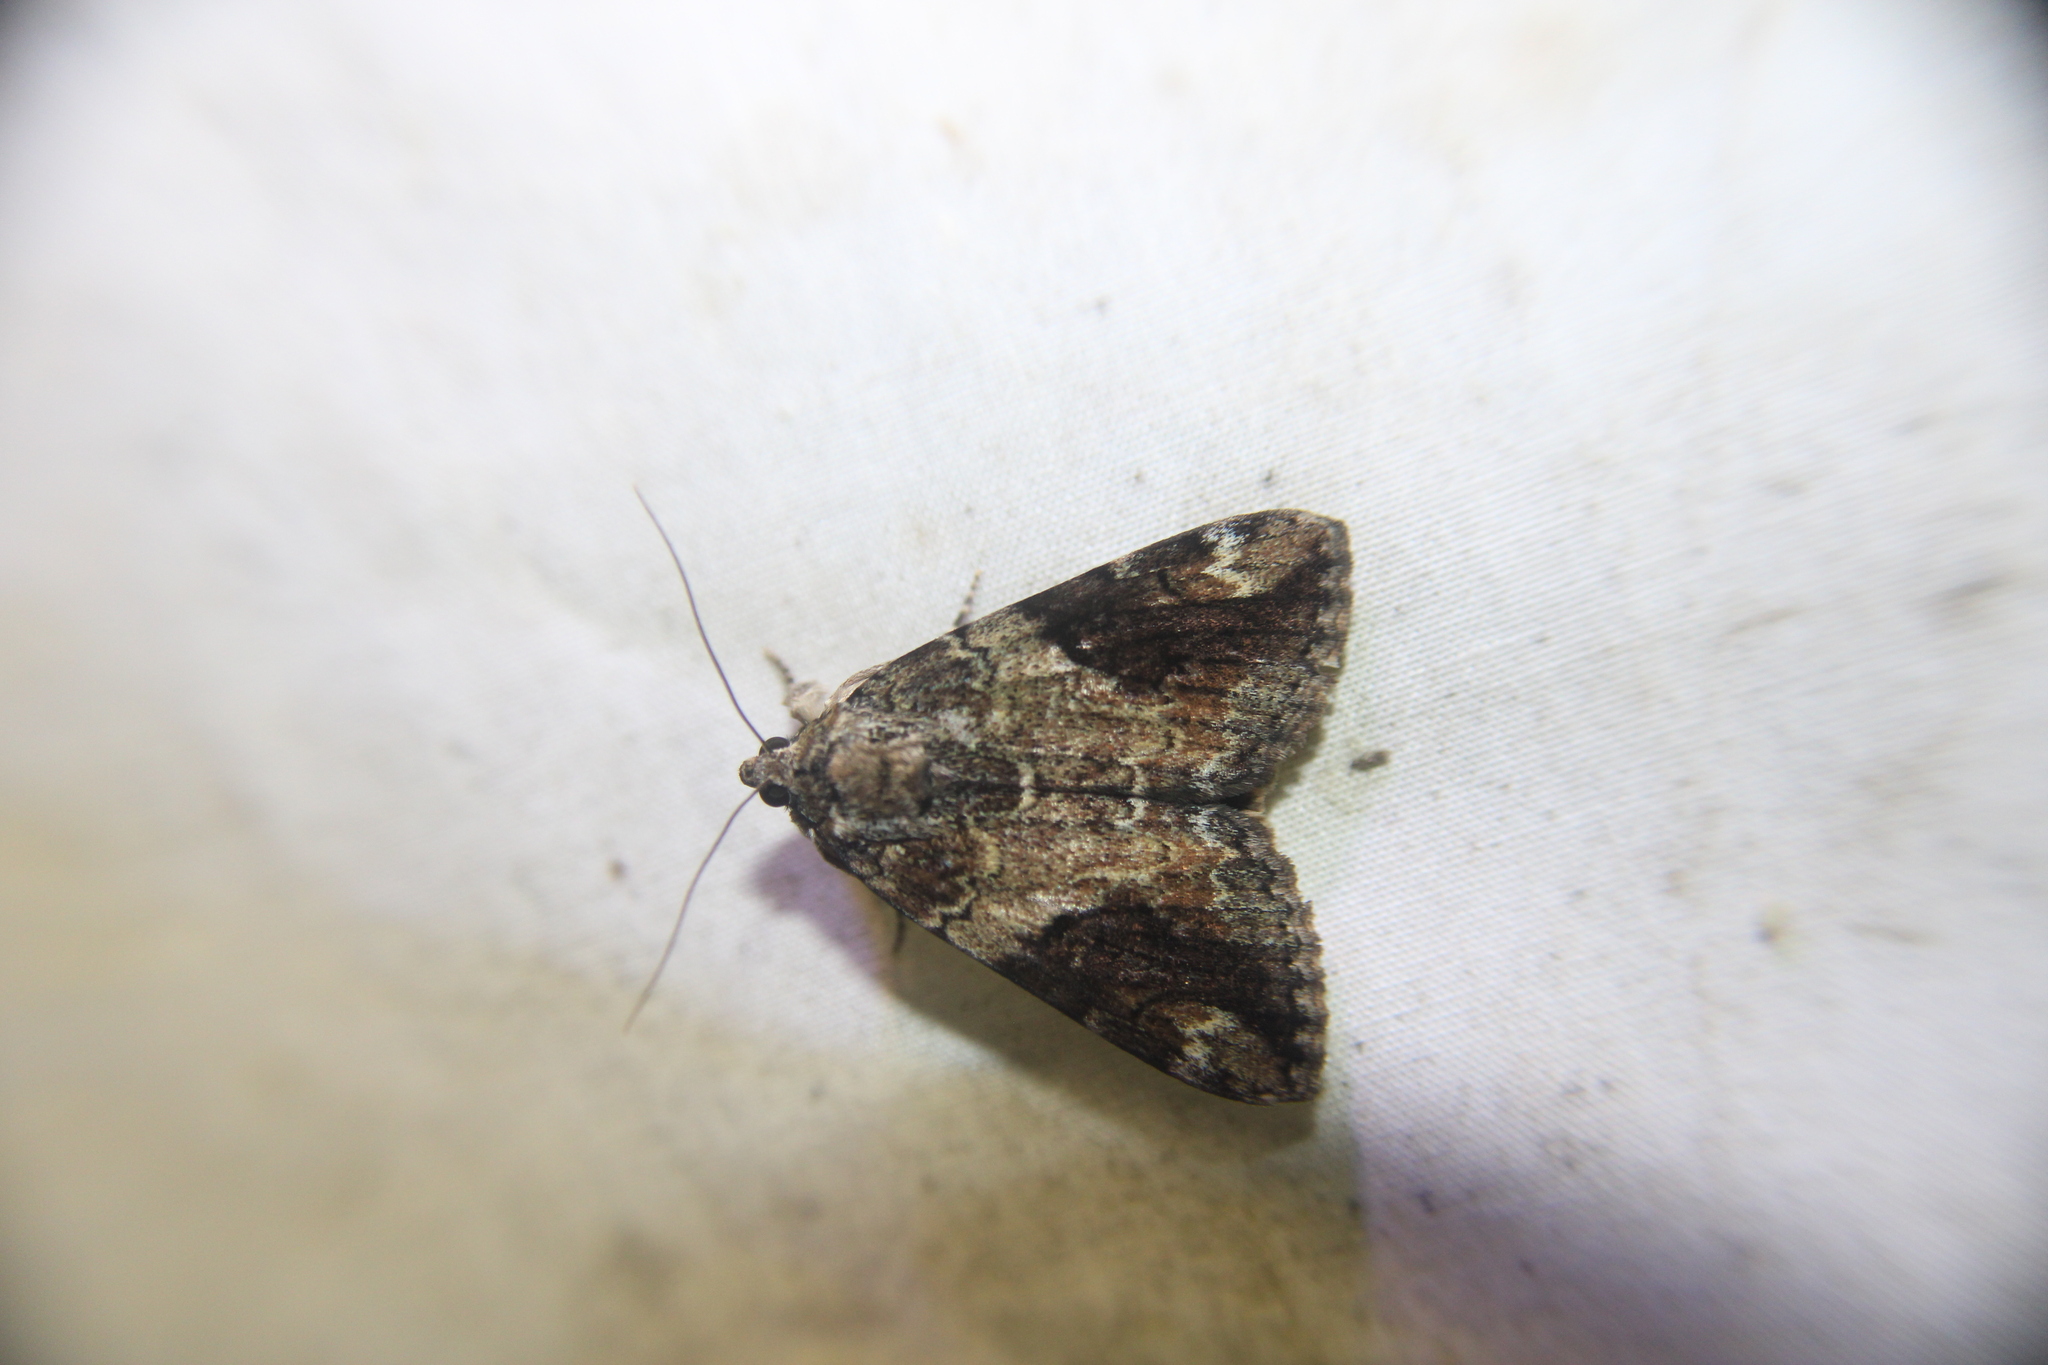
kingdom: Animalia
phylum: Arthropoda
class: Insecta
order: Lepidoptera
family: Erebidae
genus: Catocala
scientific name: Catocala micronympha
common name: Little nymph underwing
